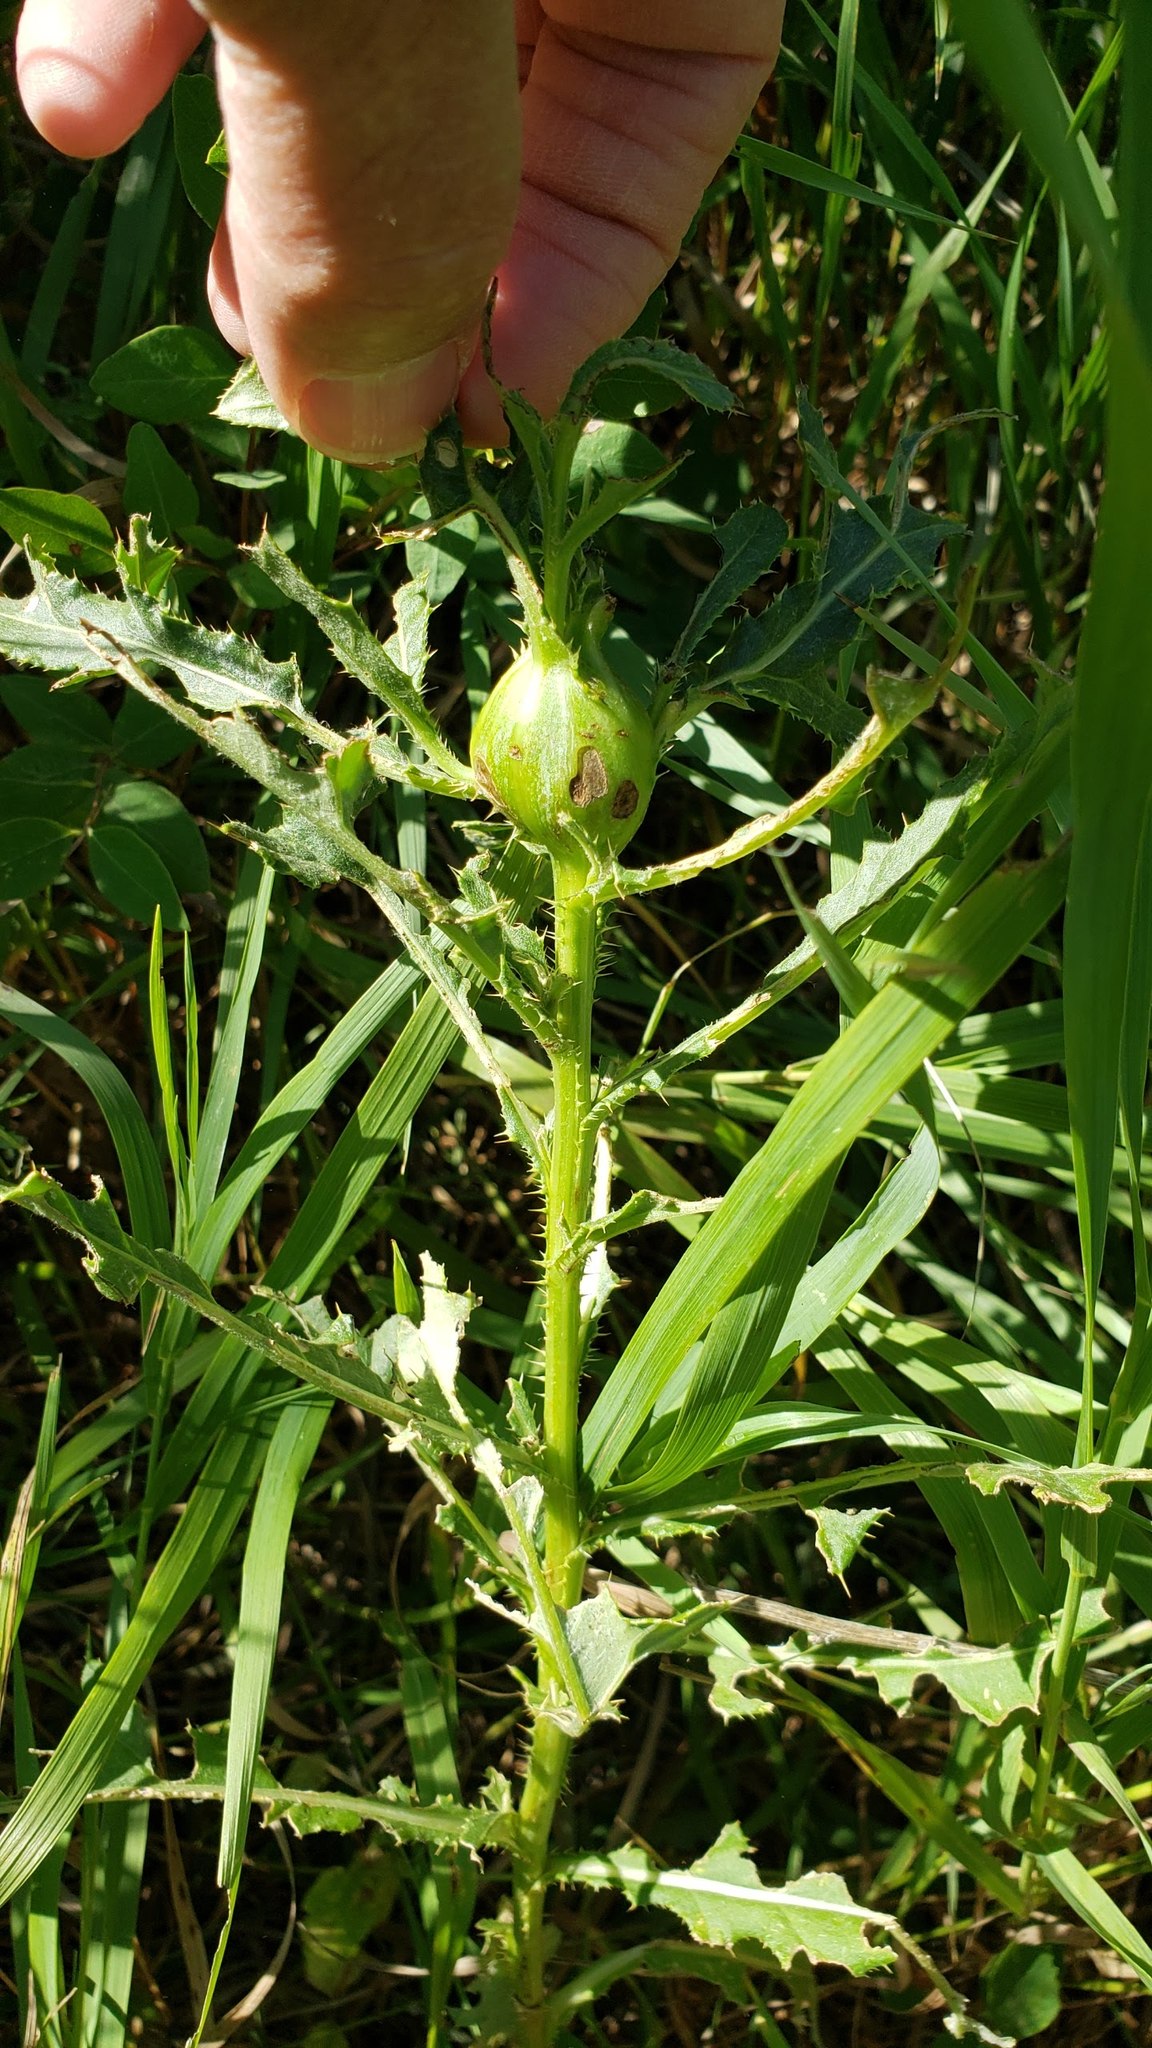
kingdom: Animalia
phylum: Arthropoda
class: Insecta
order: Diptera
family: Tephritidae
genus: Urophora
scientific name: Urophora cardui
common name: Fruit fly
